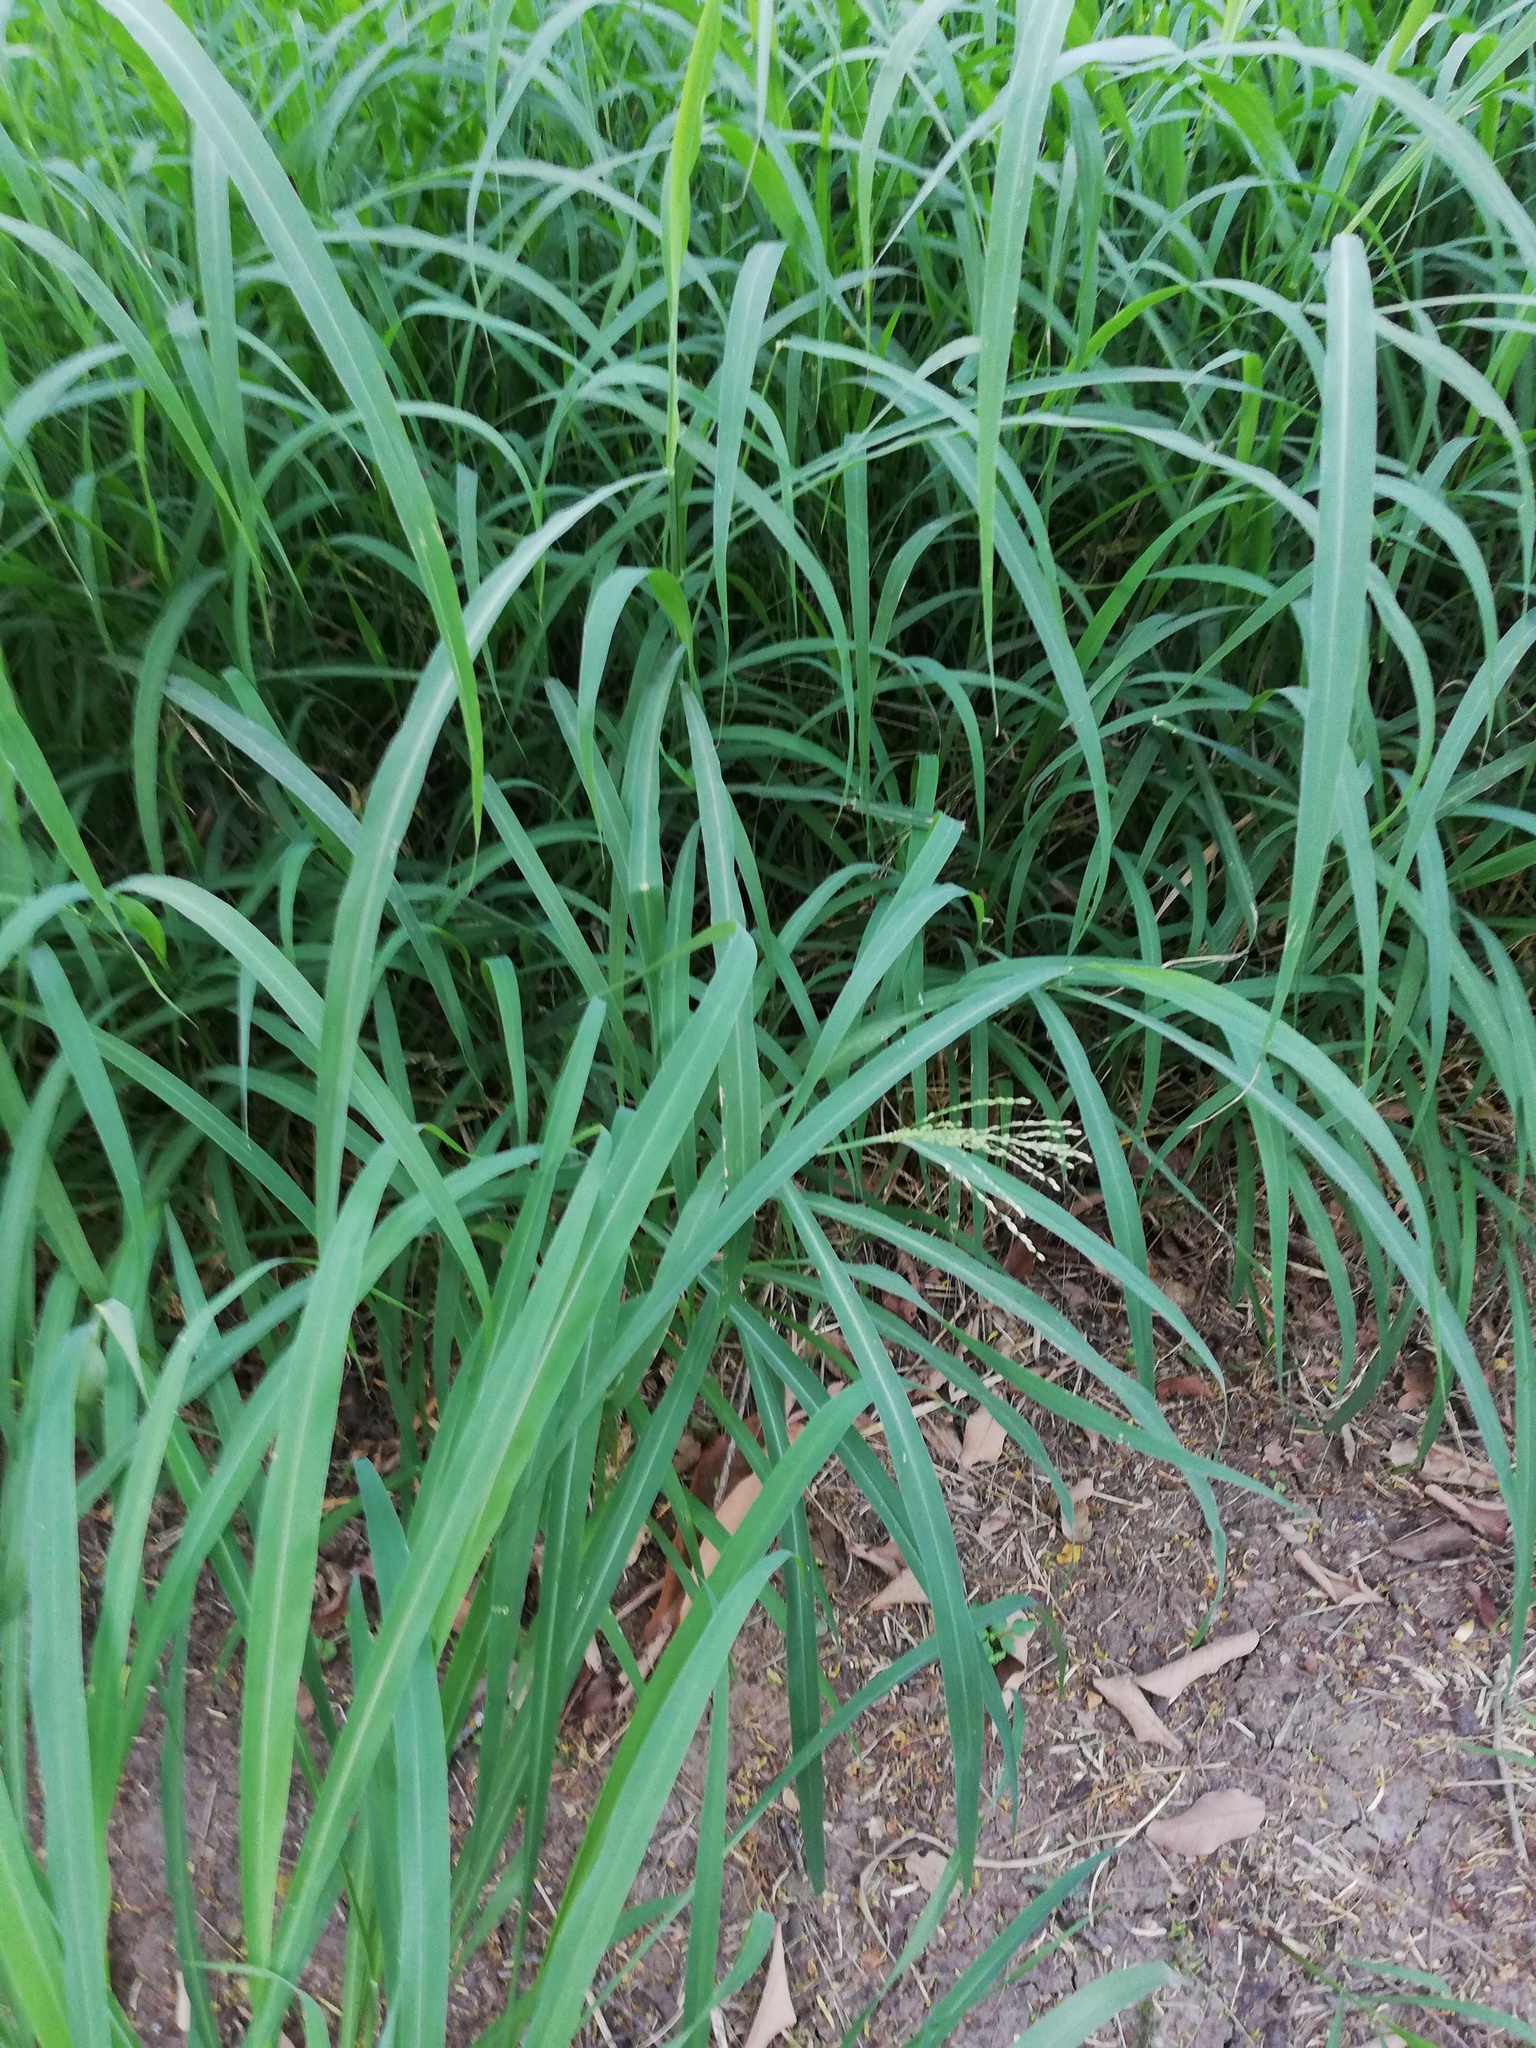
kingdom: Plantae
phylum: Tracheophyta
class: Liliopsida
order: Poales
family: Poaceae
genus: Panicum
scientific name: Panicum virgatum
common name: Switchgrass
